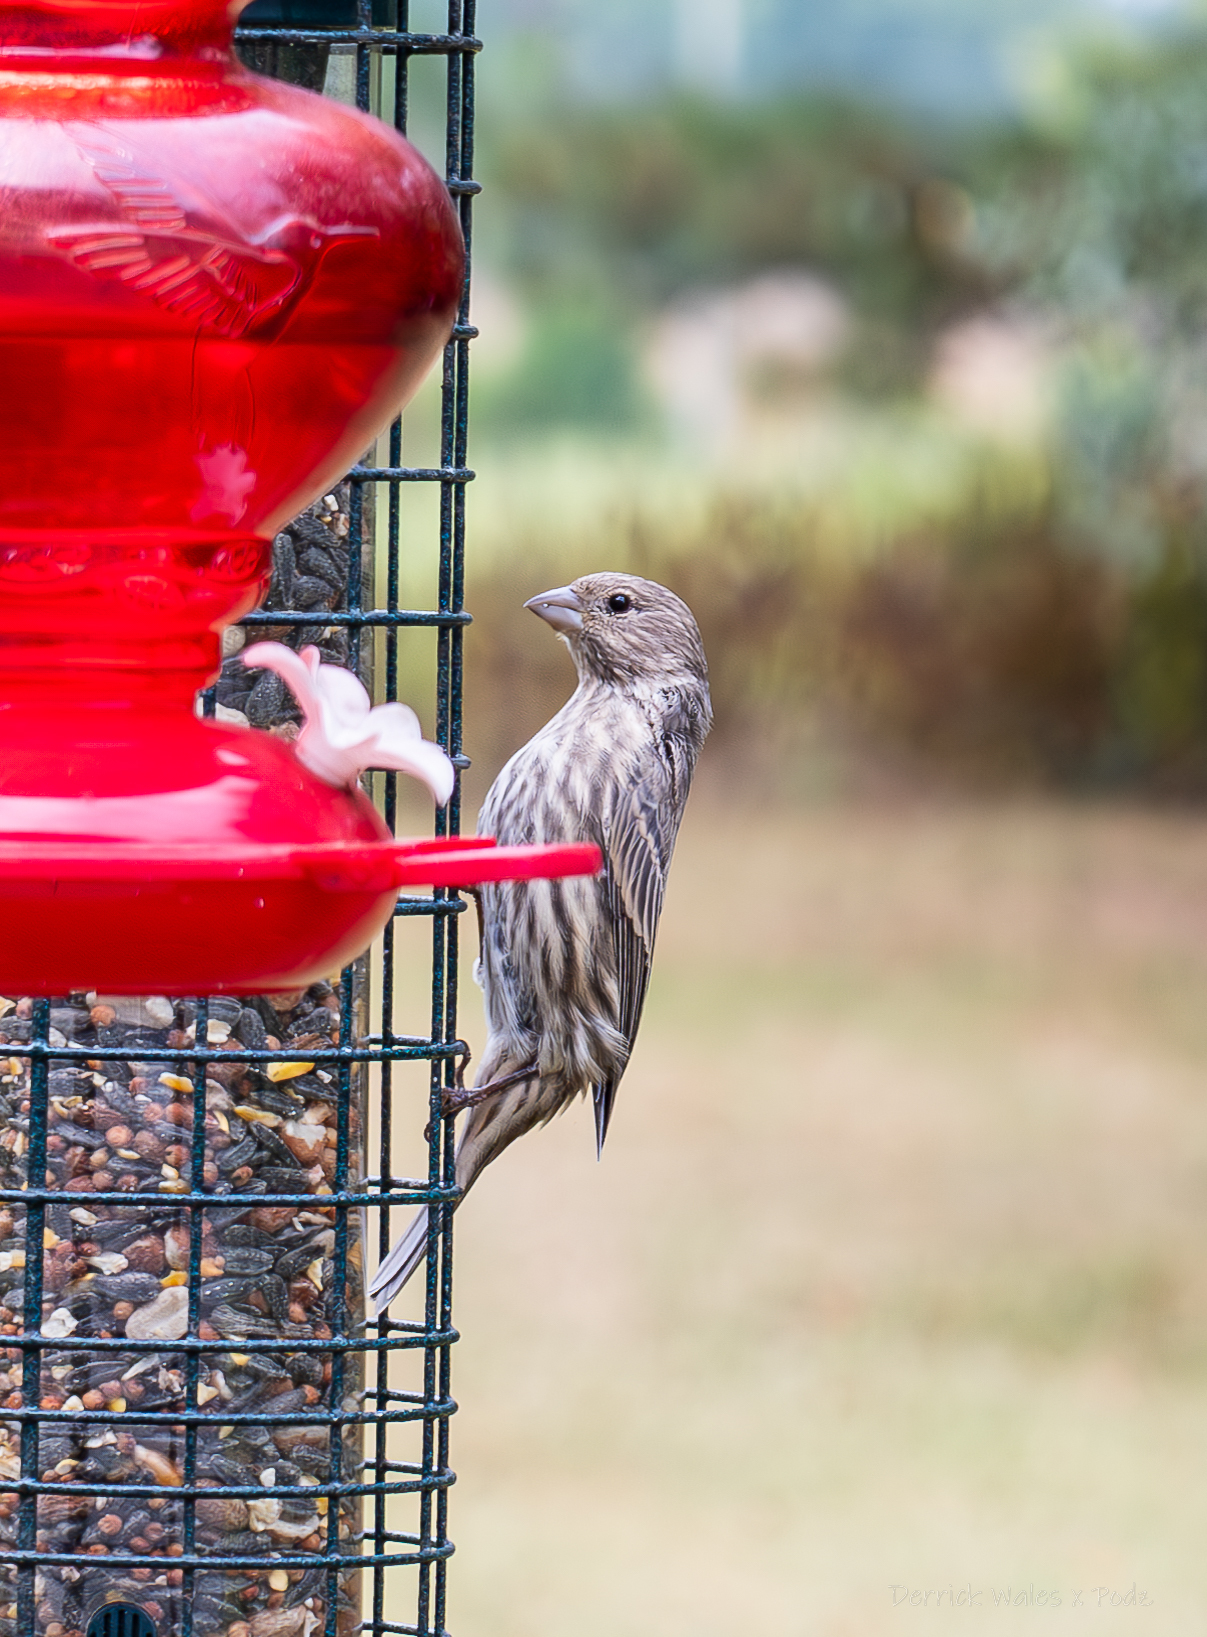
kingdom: Animalia
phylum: Chordata
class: Aves
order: Passeriformes
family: Fringillidae
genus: Haemorhous
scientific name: Haemorhous mexicanus
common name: House finch
